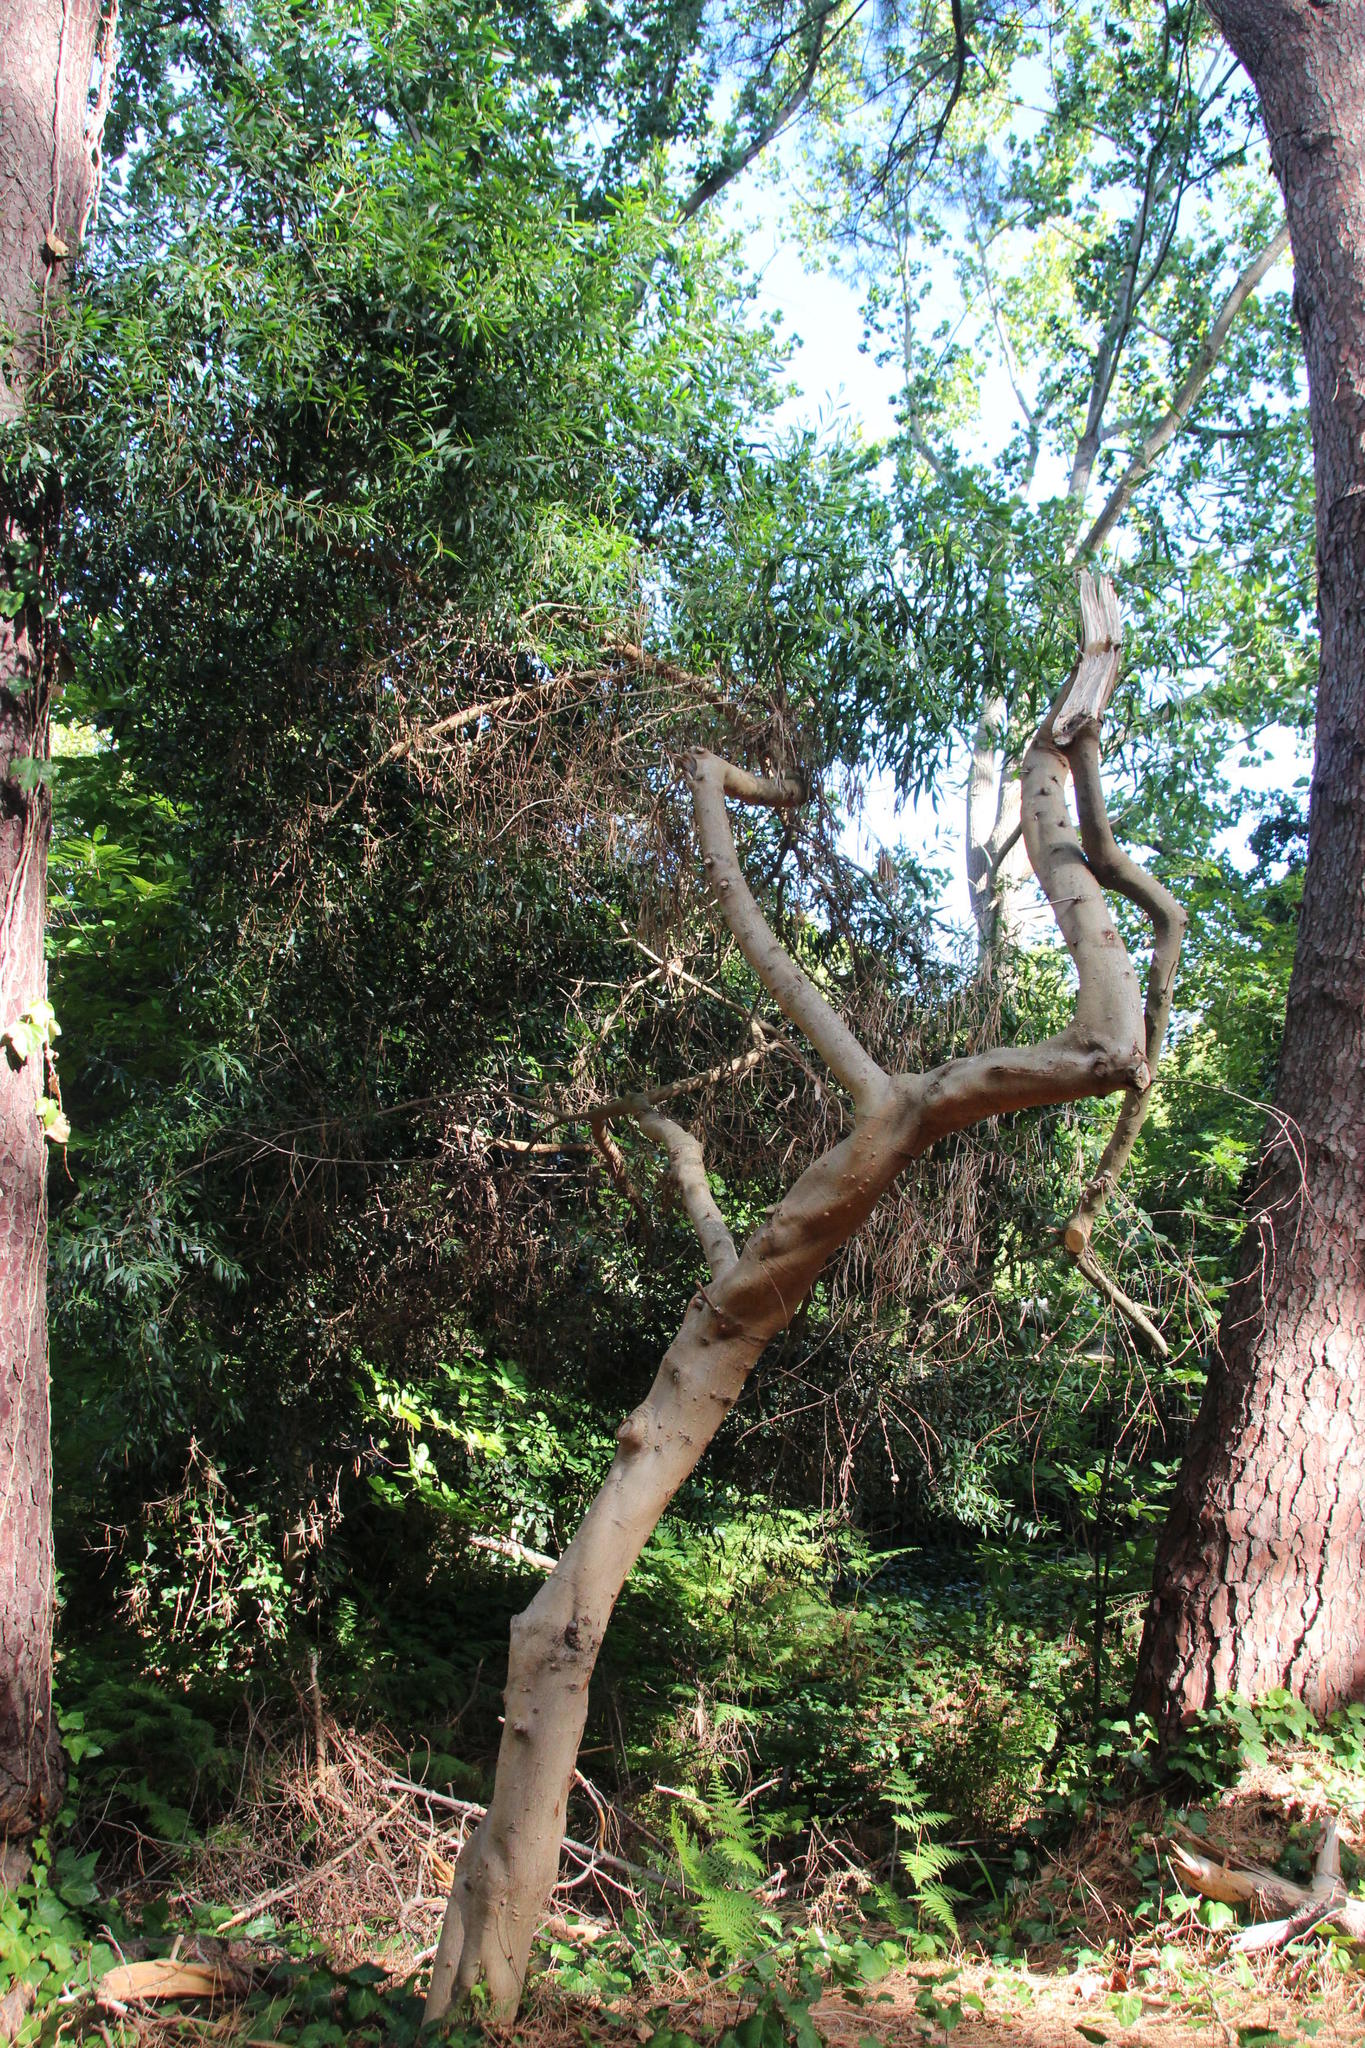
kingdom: Plantae
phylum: Tracheophyta
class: Magnoliopsida
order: Fabales
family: Fabaceae
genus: Acacia
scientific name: Acacia longifolia
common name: Sydney golden wattle
